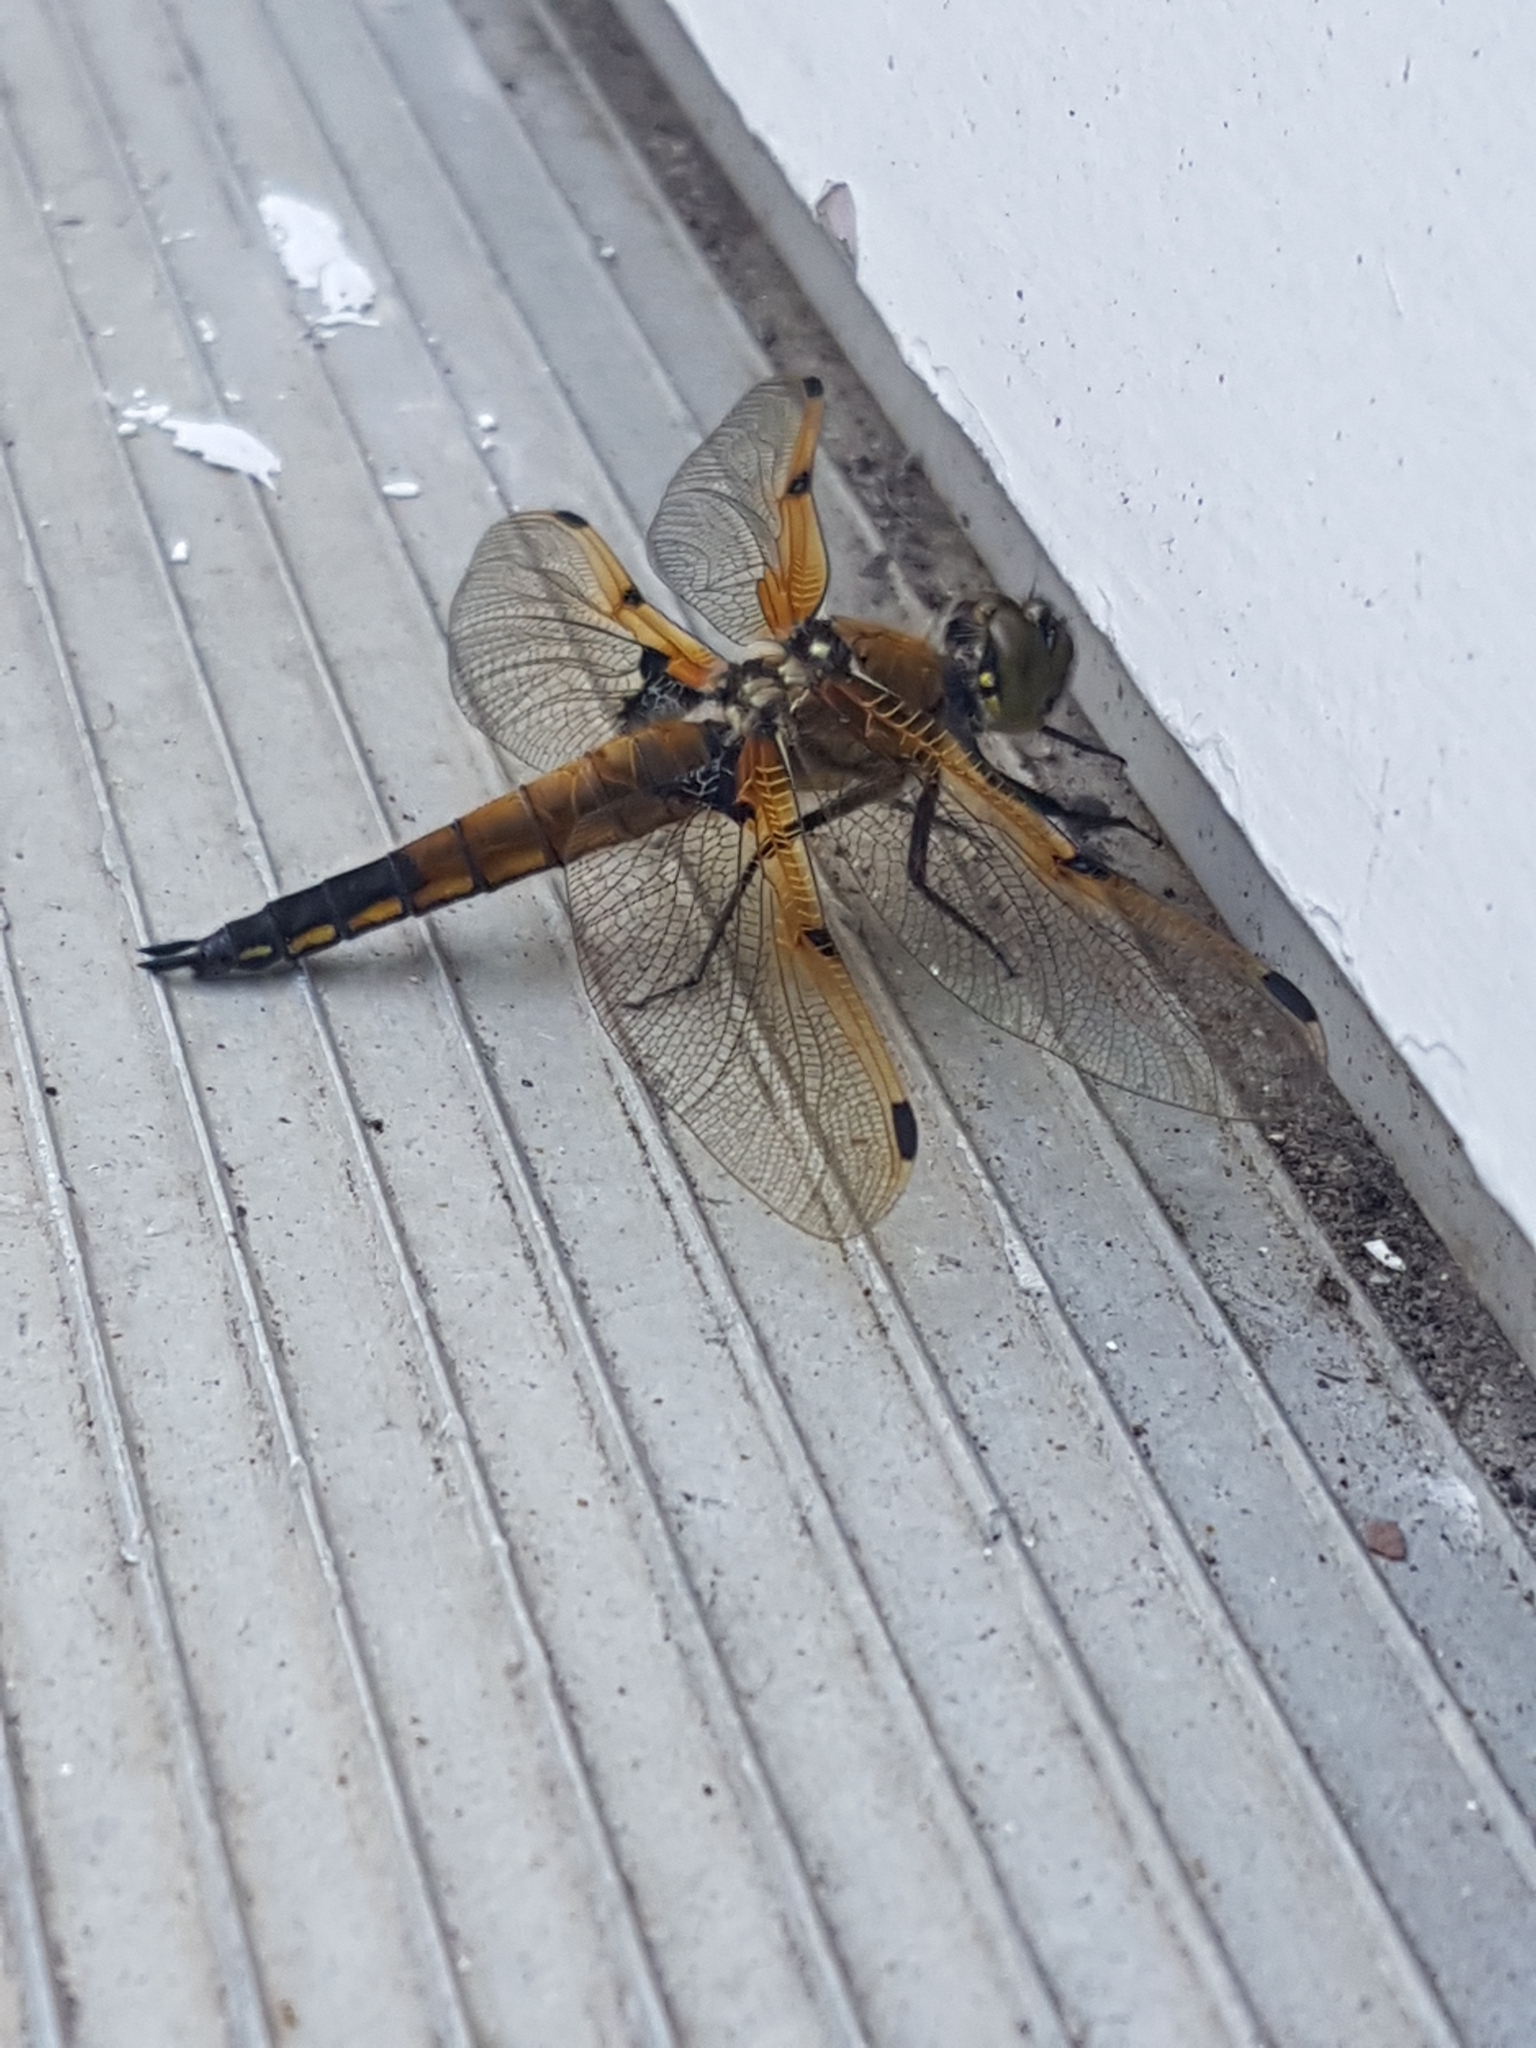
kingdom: Animalia
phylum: Arthropoda
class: Insecta
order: Odonata
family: Libellulidae
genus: Libellula
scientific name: Libellula quadrimaculata
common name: Four-spotted chaser
